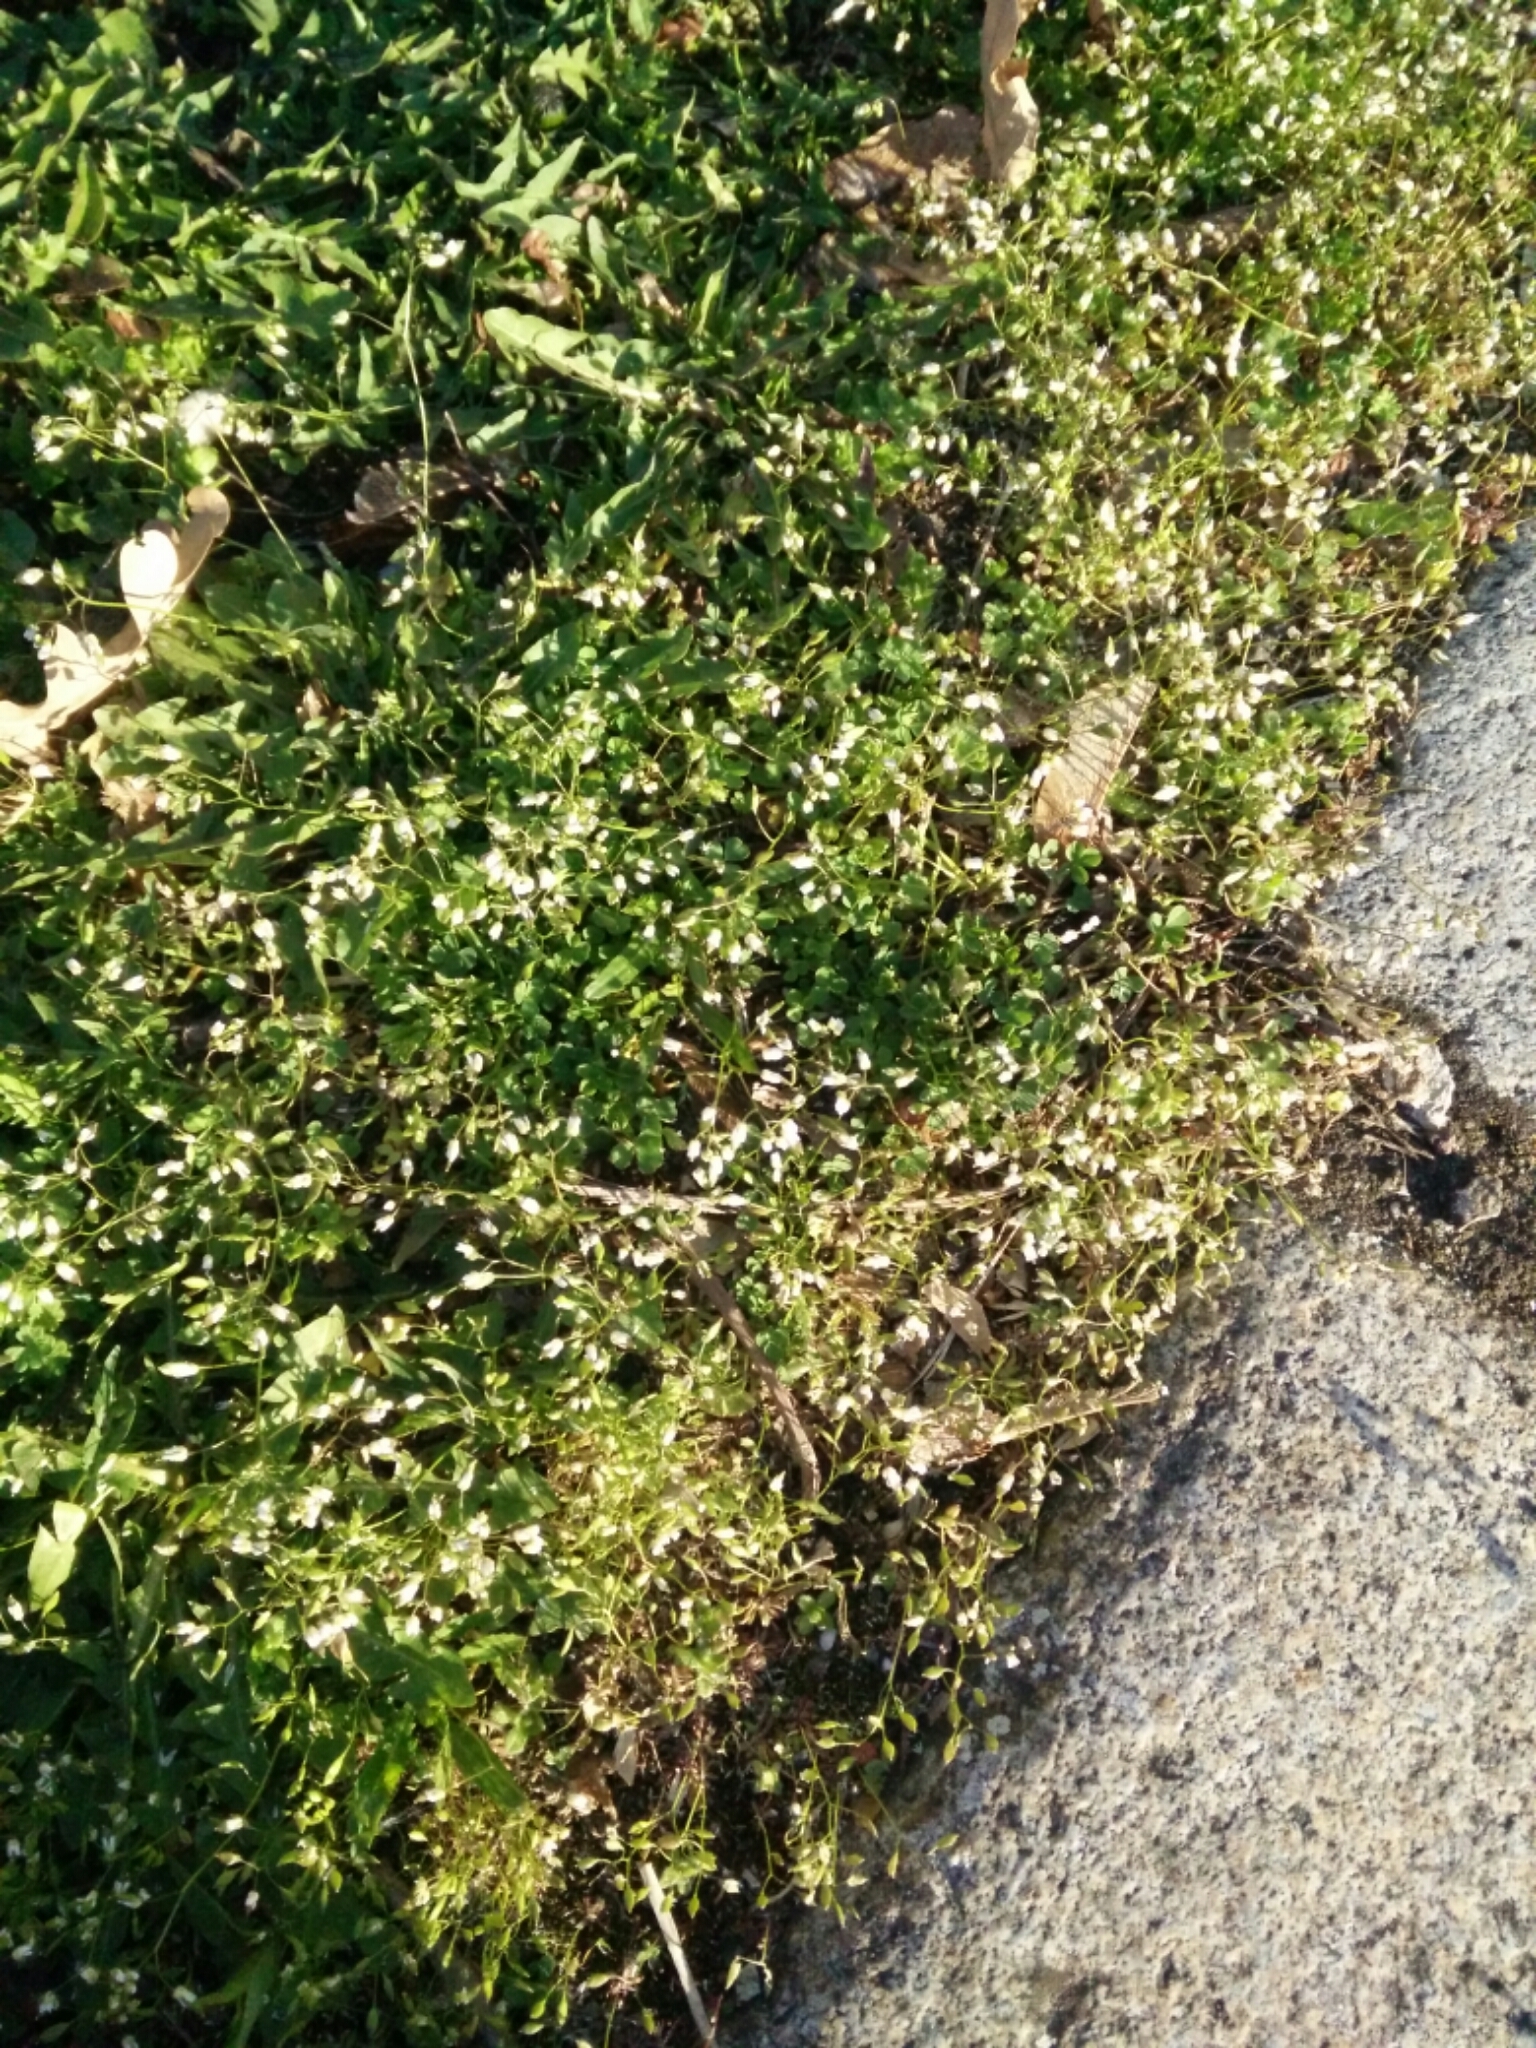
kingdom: Plantae
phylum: Tracheophyta
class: Magnoliopsida
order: Brassicales
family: Brassicaceae
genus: Draba
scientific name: Draba verna
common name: Spring draba
